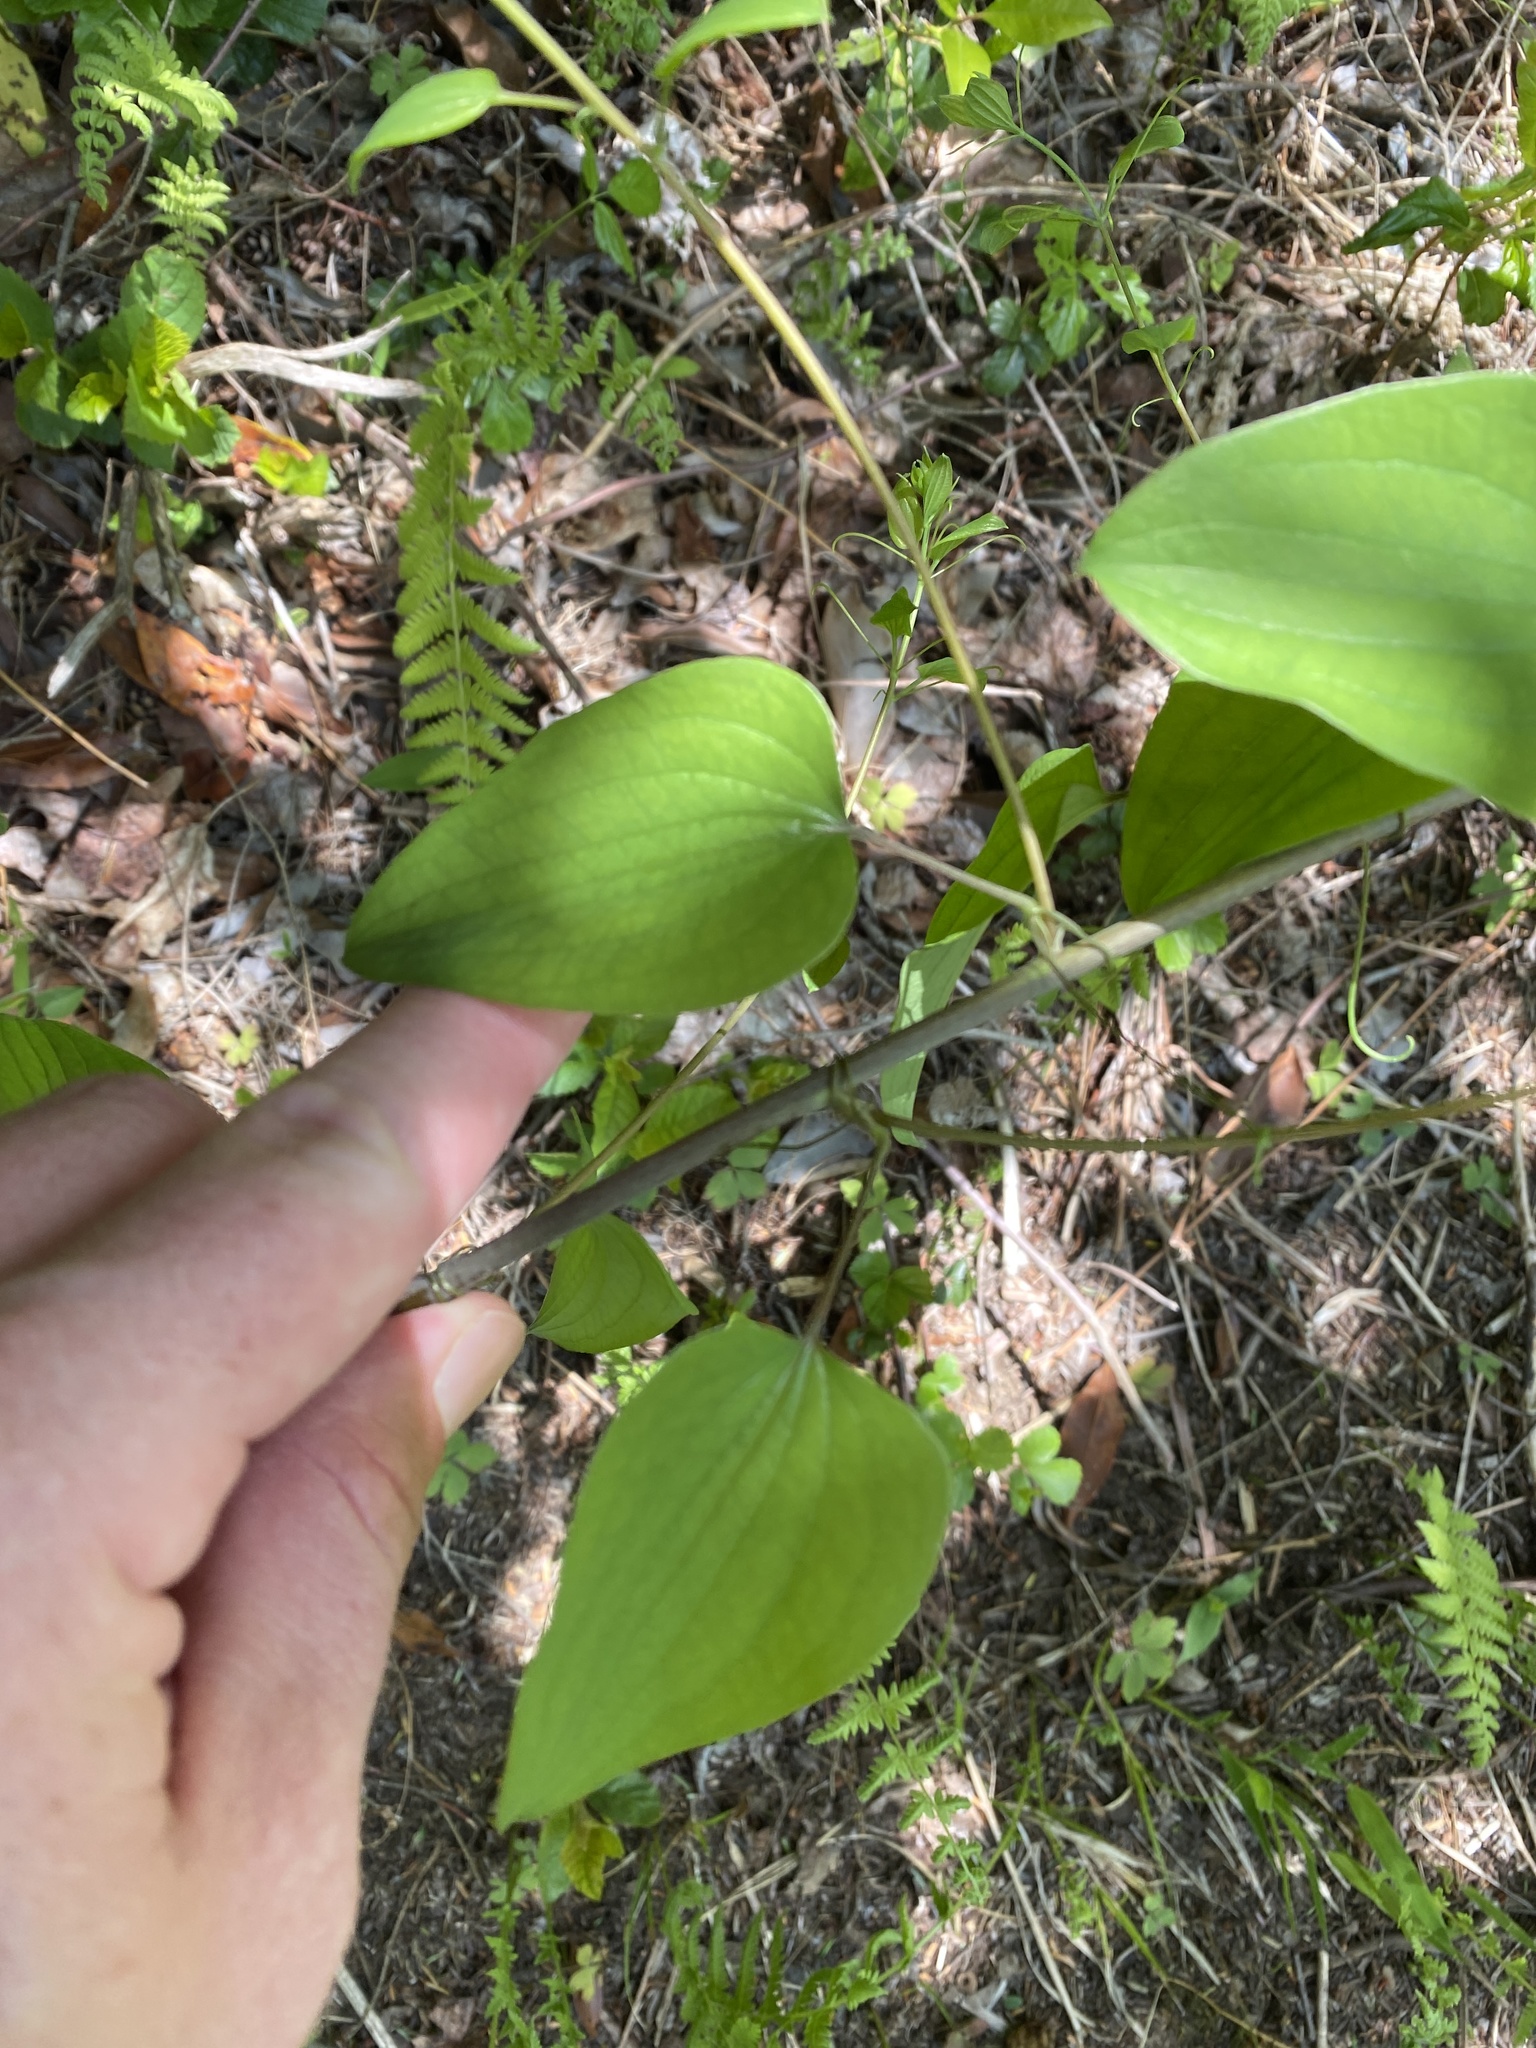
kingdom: Plantae
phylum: Tracheophyta
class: Liliopsida
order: Liliales
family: Smilacaceae
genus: Smilax
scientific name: Smilax herbacea
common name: Jacob's-ladder
